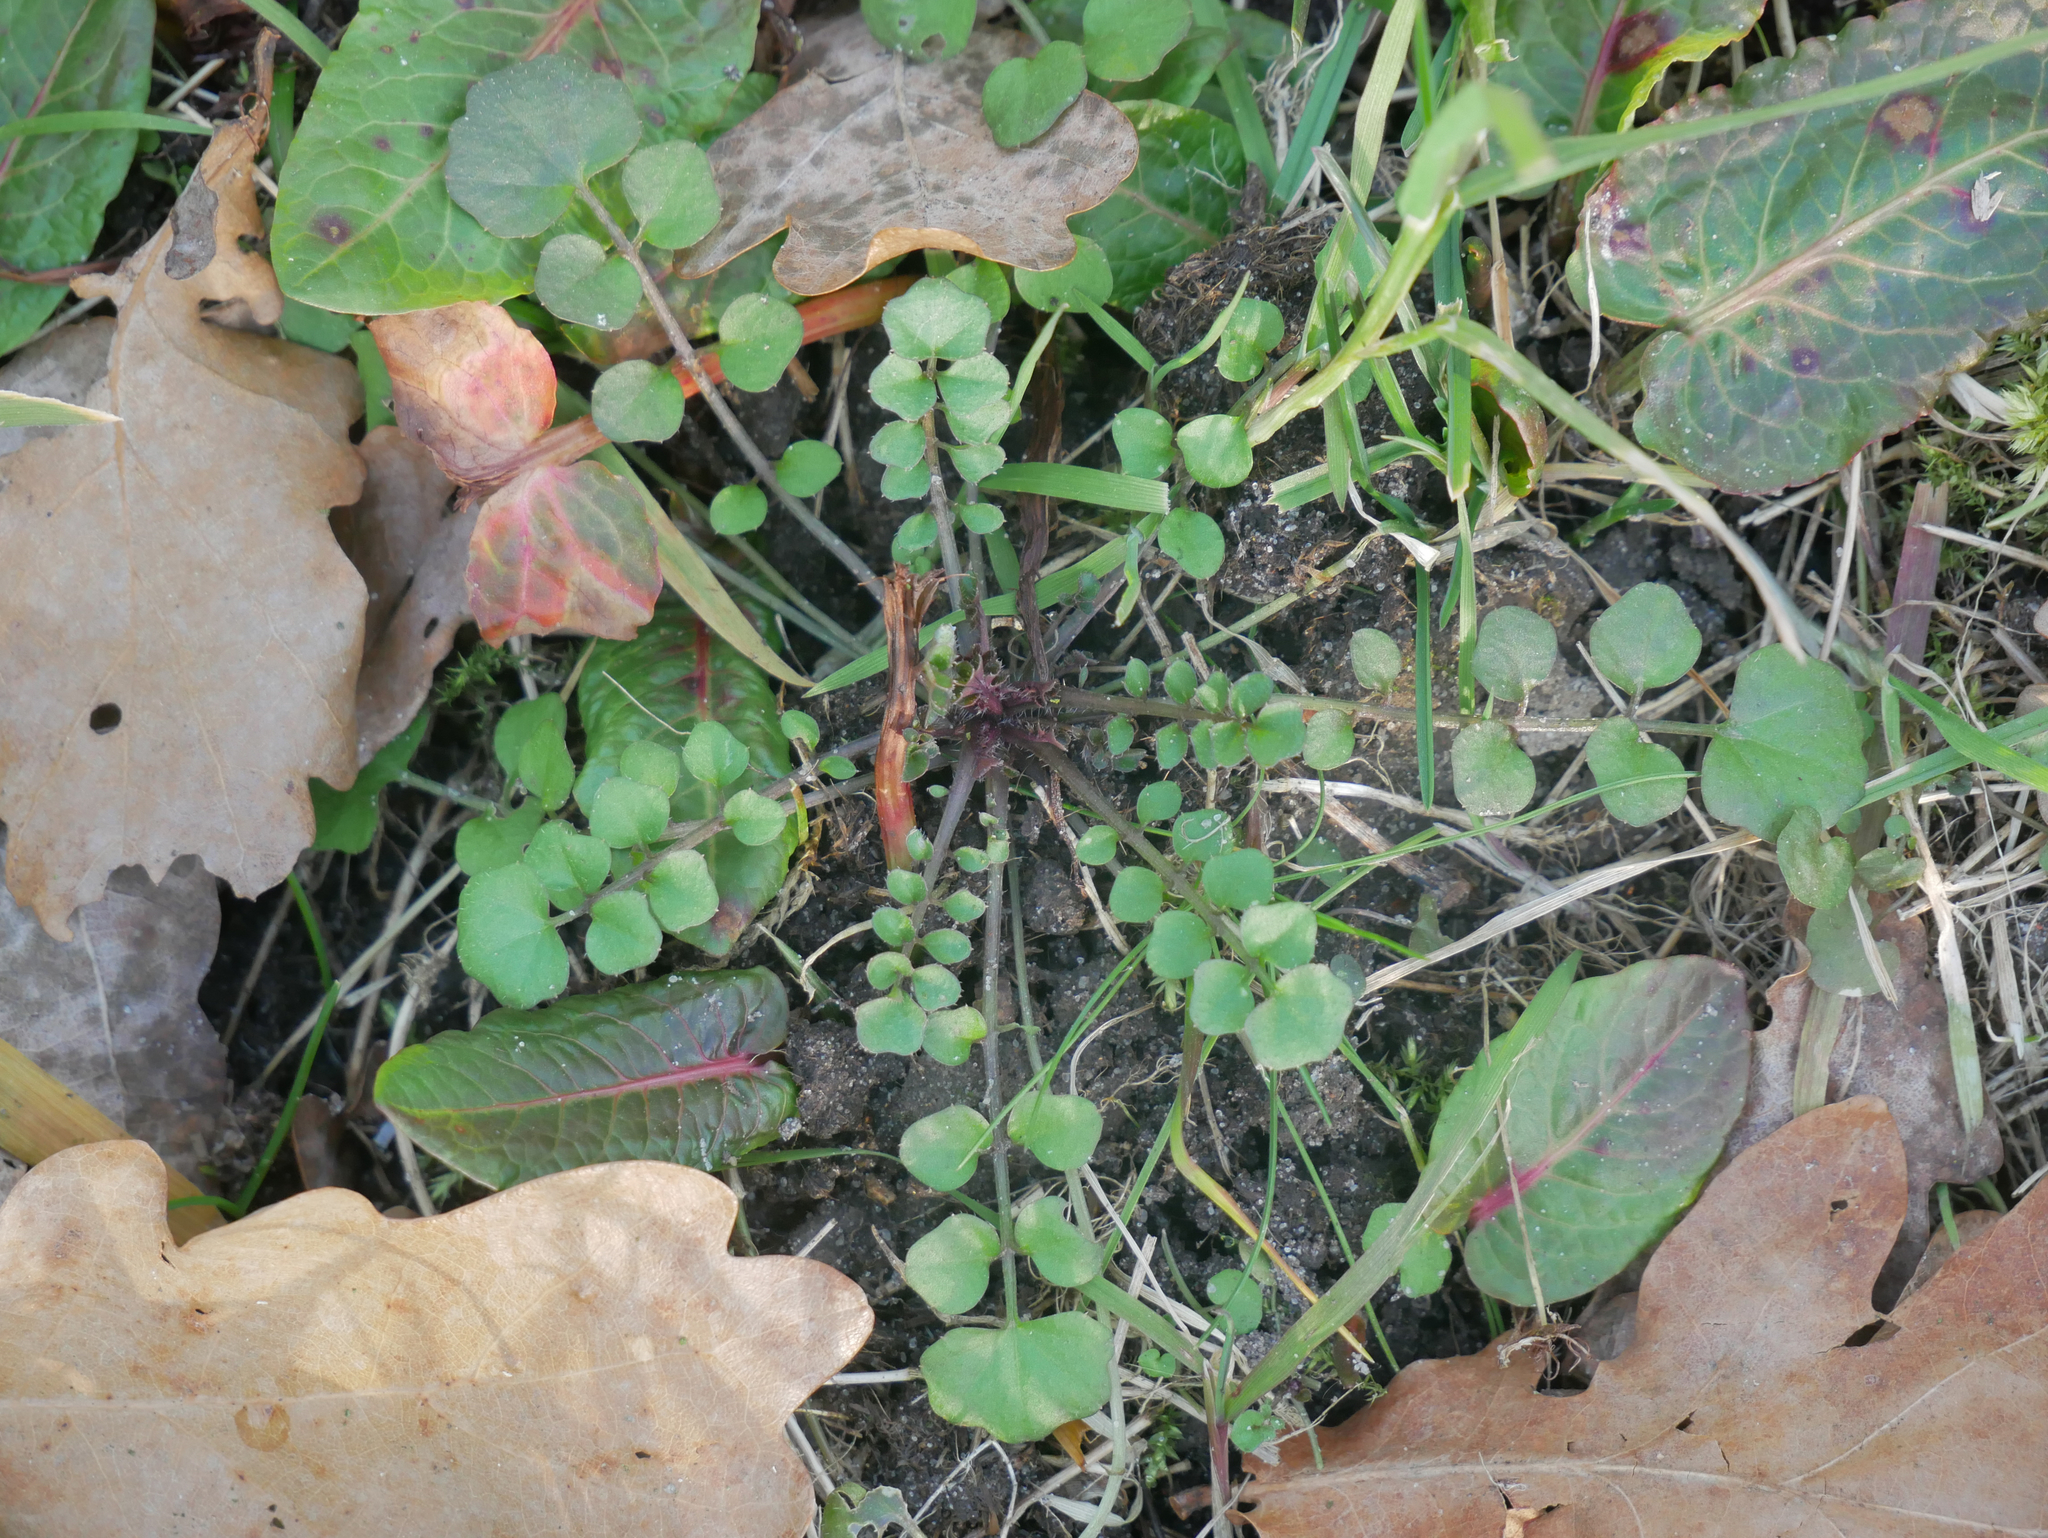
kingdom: Plantae
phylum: Tracheophyta
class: Magnoliopsida
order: Brassicales
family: Brassicaceae
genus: Cardamine
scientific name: Cardamine hirsuta
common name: Hairy bittercress
